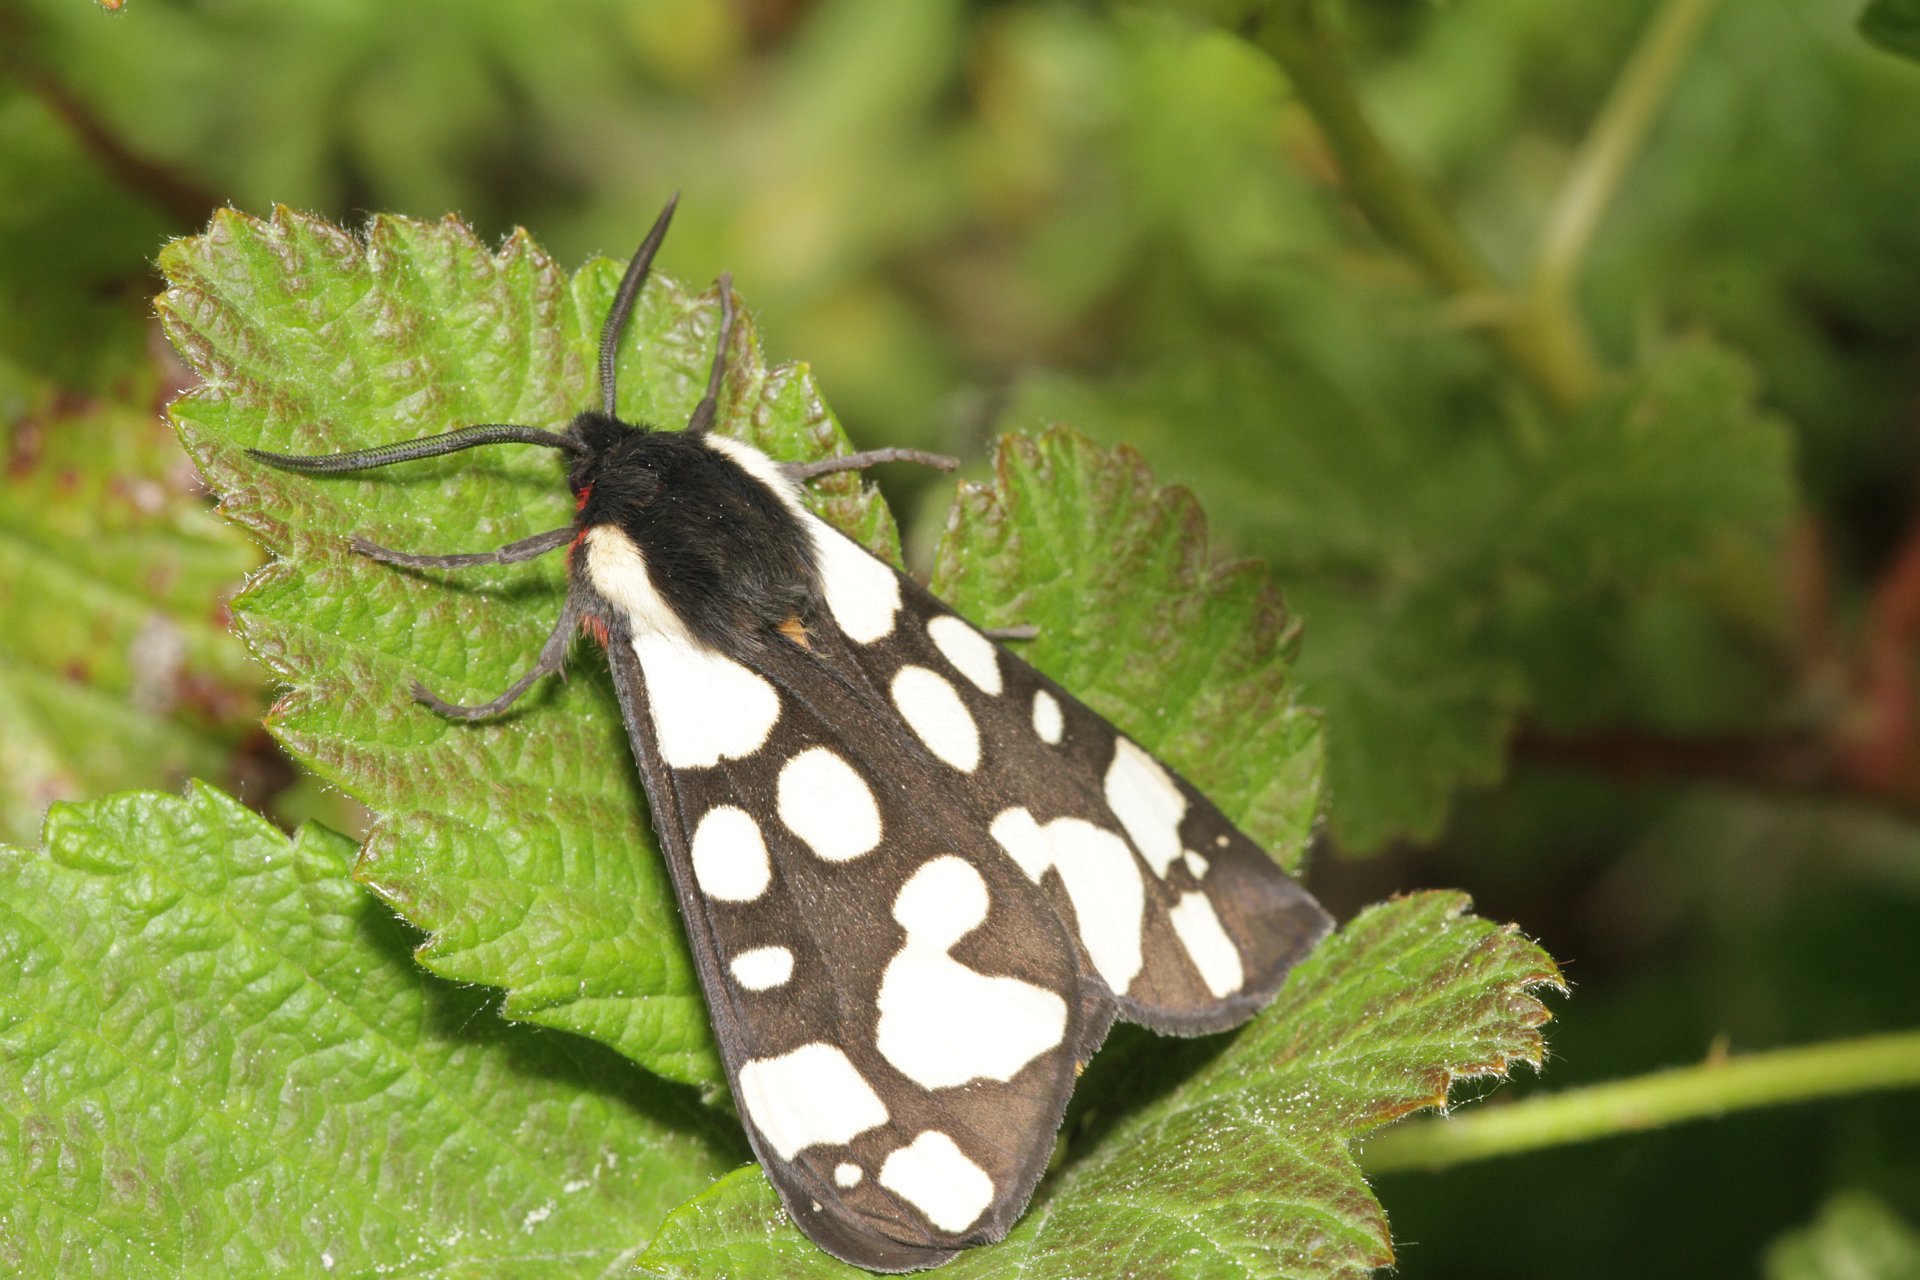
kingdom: Animalia
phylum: Arthropoda
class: Insecta
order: Lepidoptera
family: Erebidae
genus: Epicallia
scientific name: Epicallia villica
